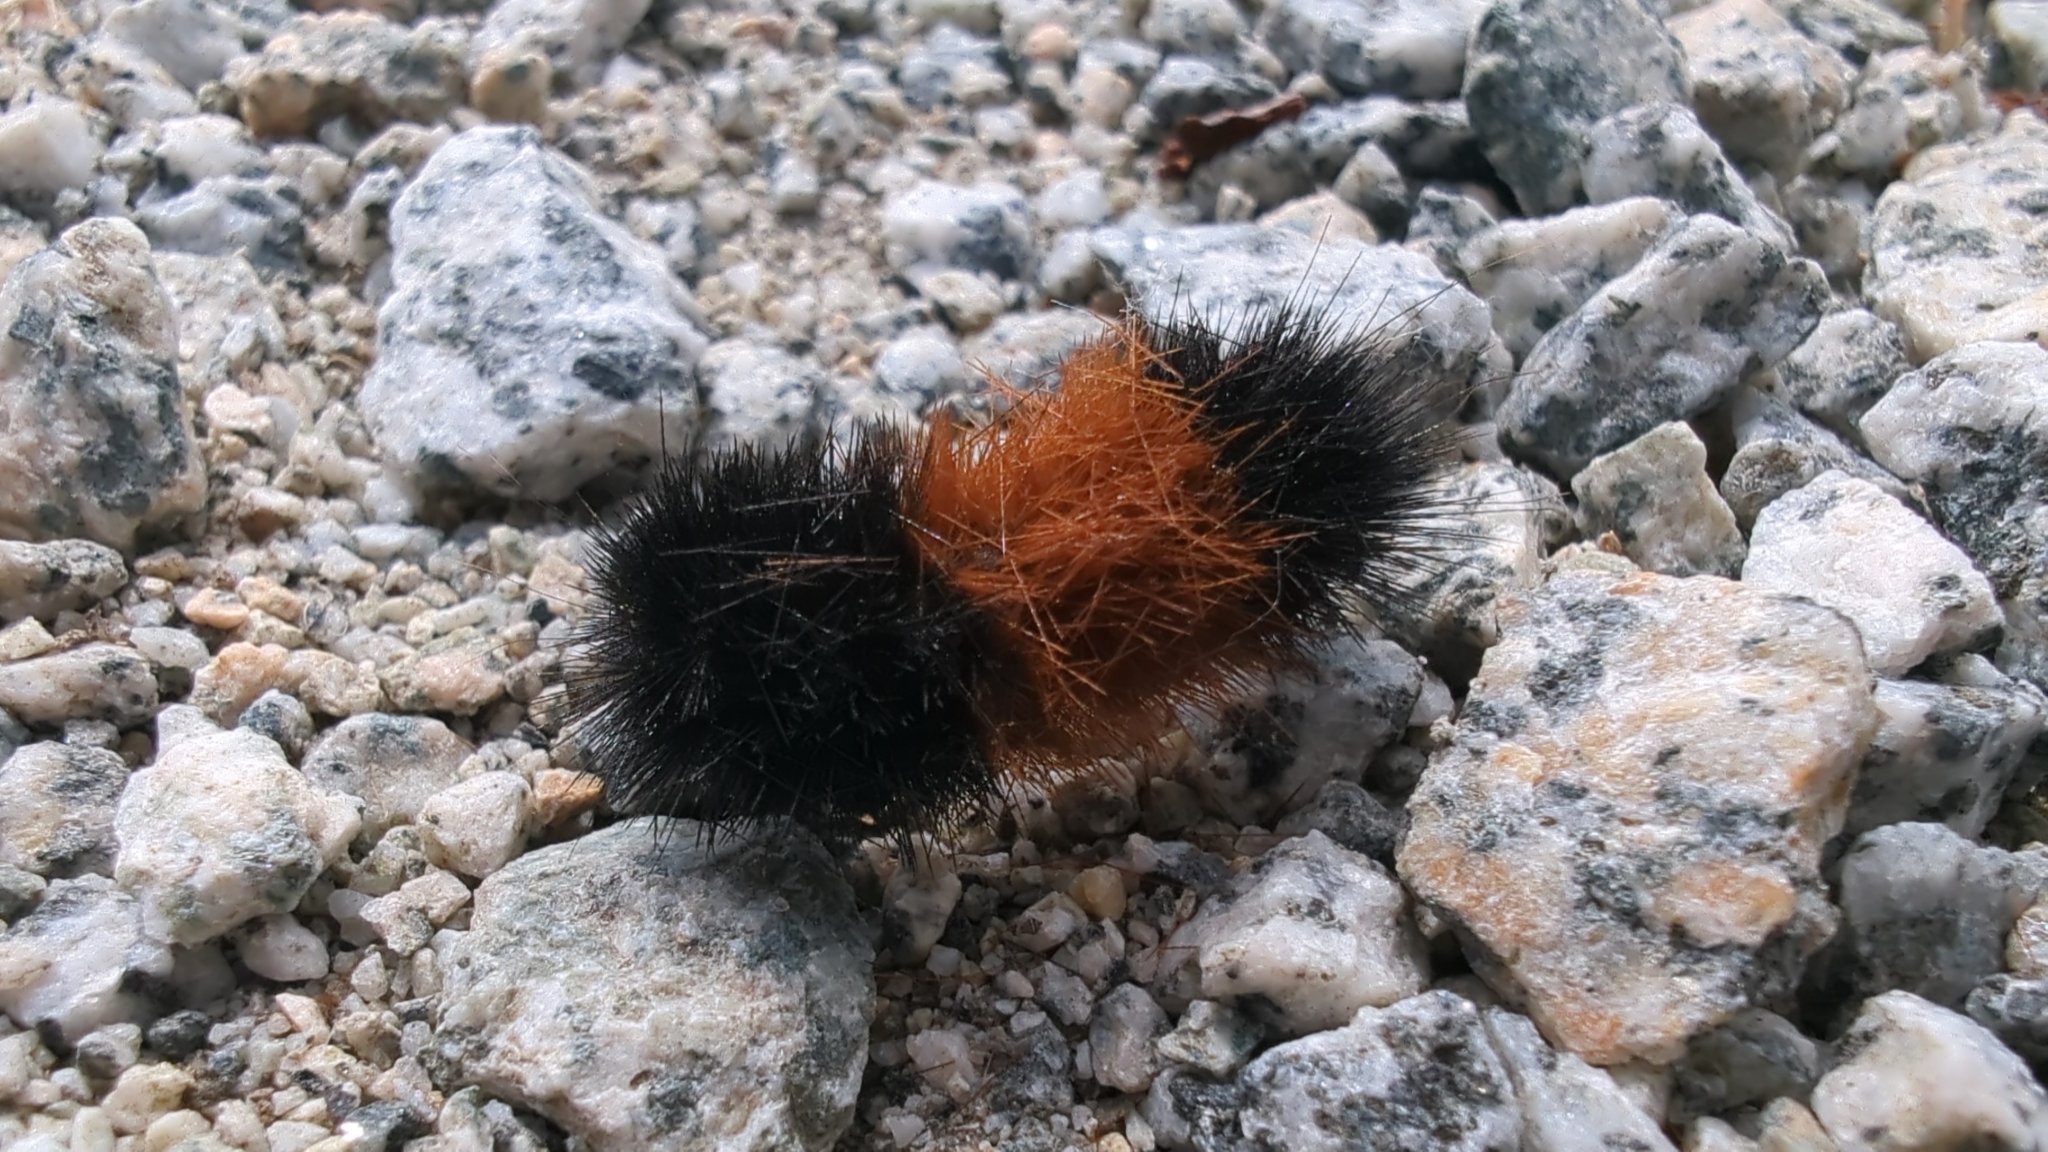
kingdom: Animalia
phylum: Arthropoda
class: Insecta
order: Lepidoptera
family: Erebidae
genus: Pyrrharctia
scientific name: Pyrrharctia isabella
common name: Isabella tiger moth
